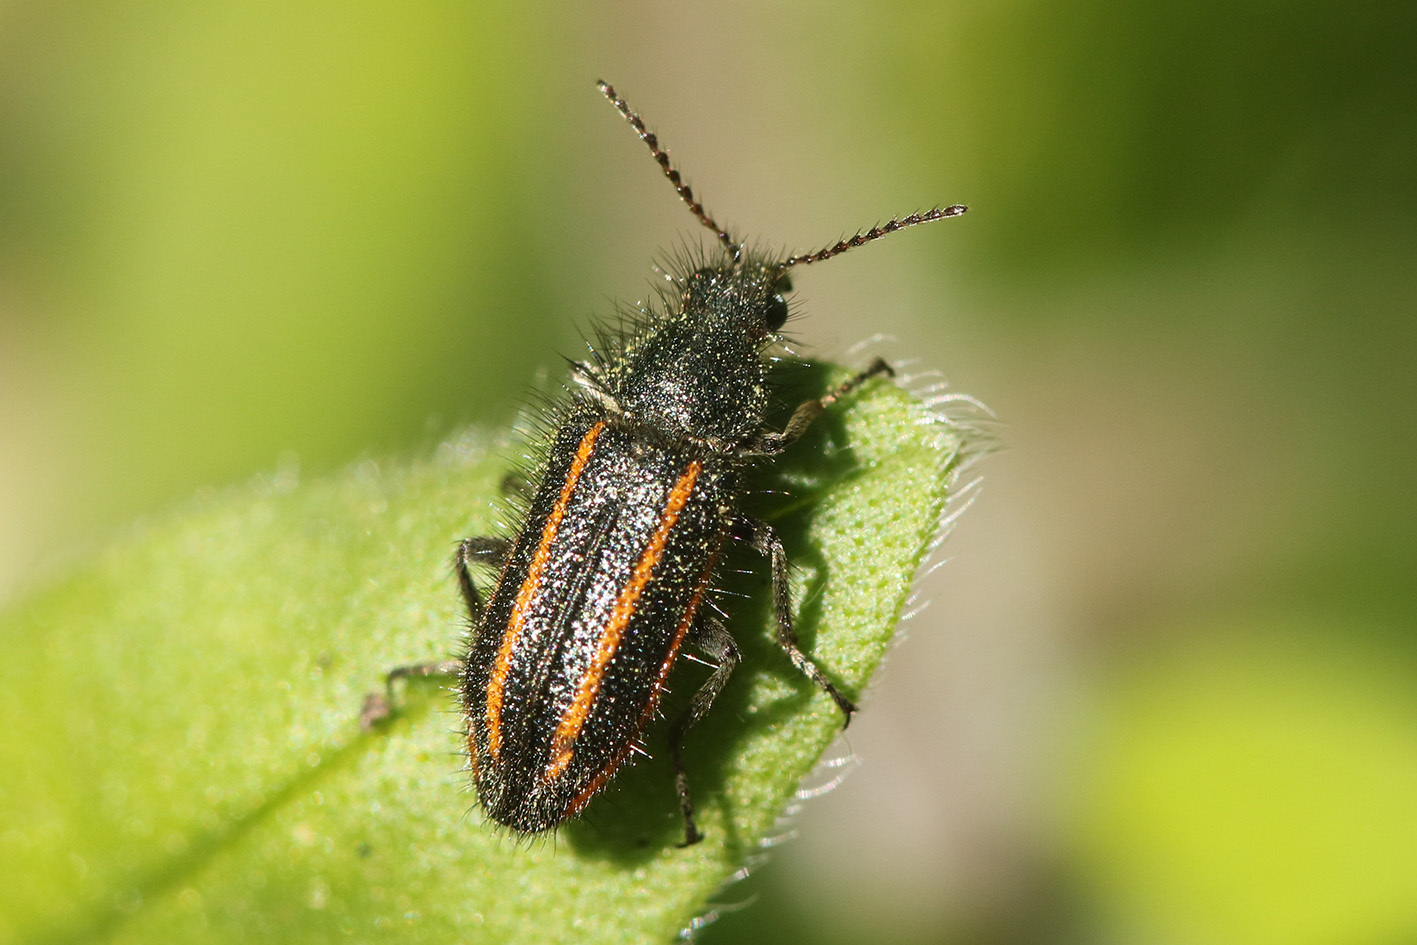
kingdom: Animalia
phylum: Arthropoda
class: Insecta
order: Coleoptera
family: Melyridae
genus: Astylus
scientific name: Astylus
